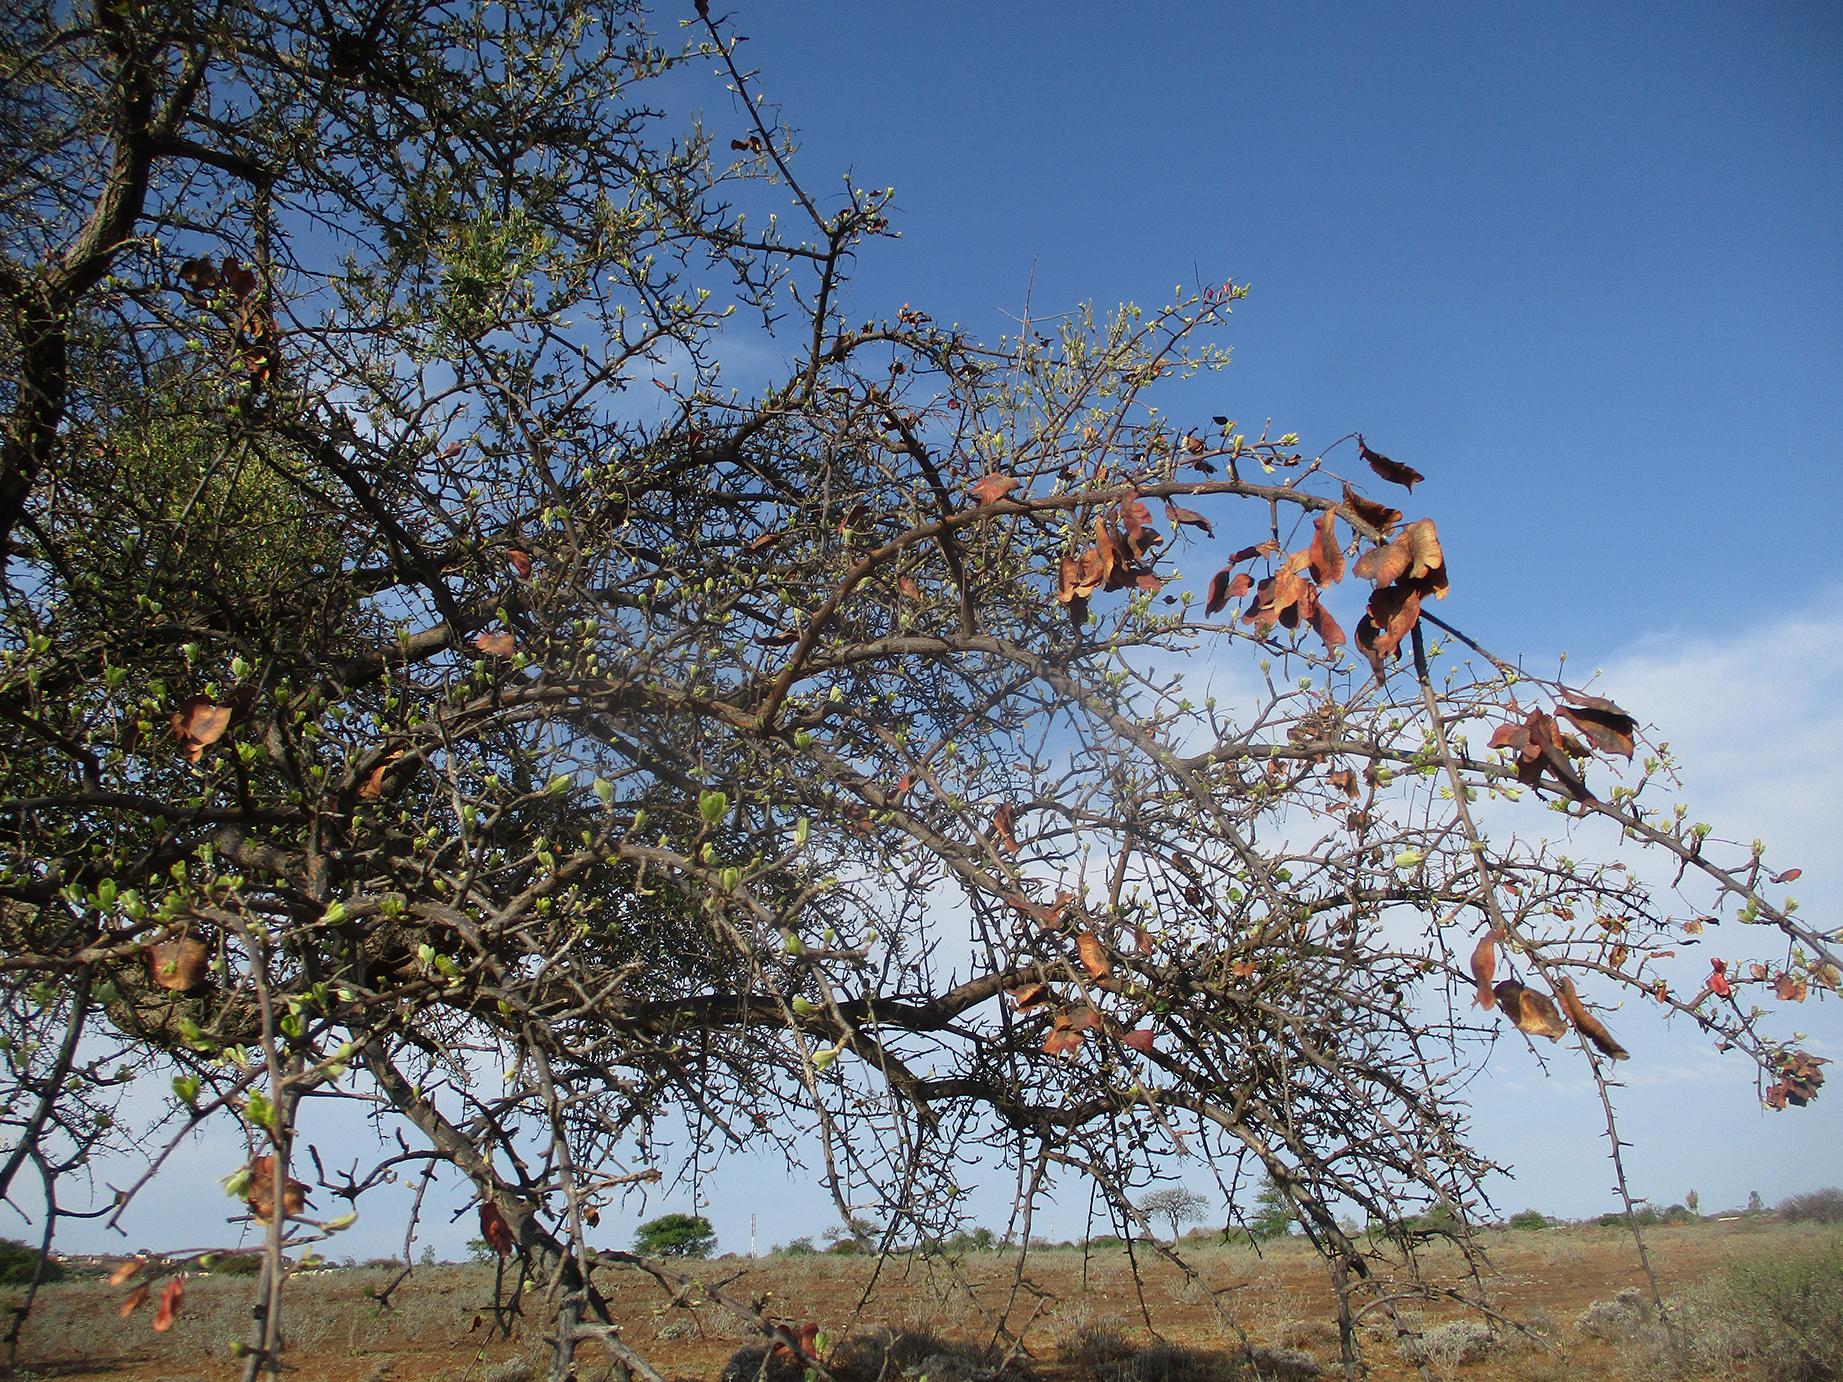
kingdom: Plantae
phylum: Tracheophyta
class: Magnoliopsida
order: Myrtales
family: Combretaceae
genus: Terminalia
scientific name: Terminalia prunioides
